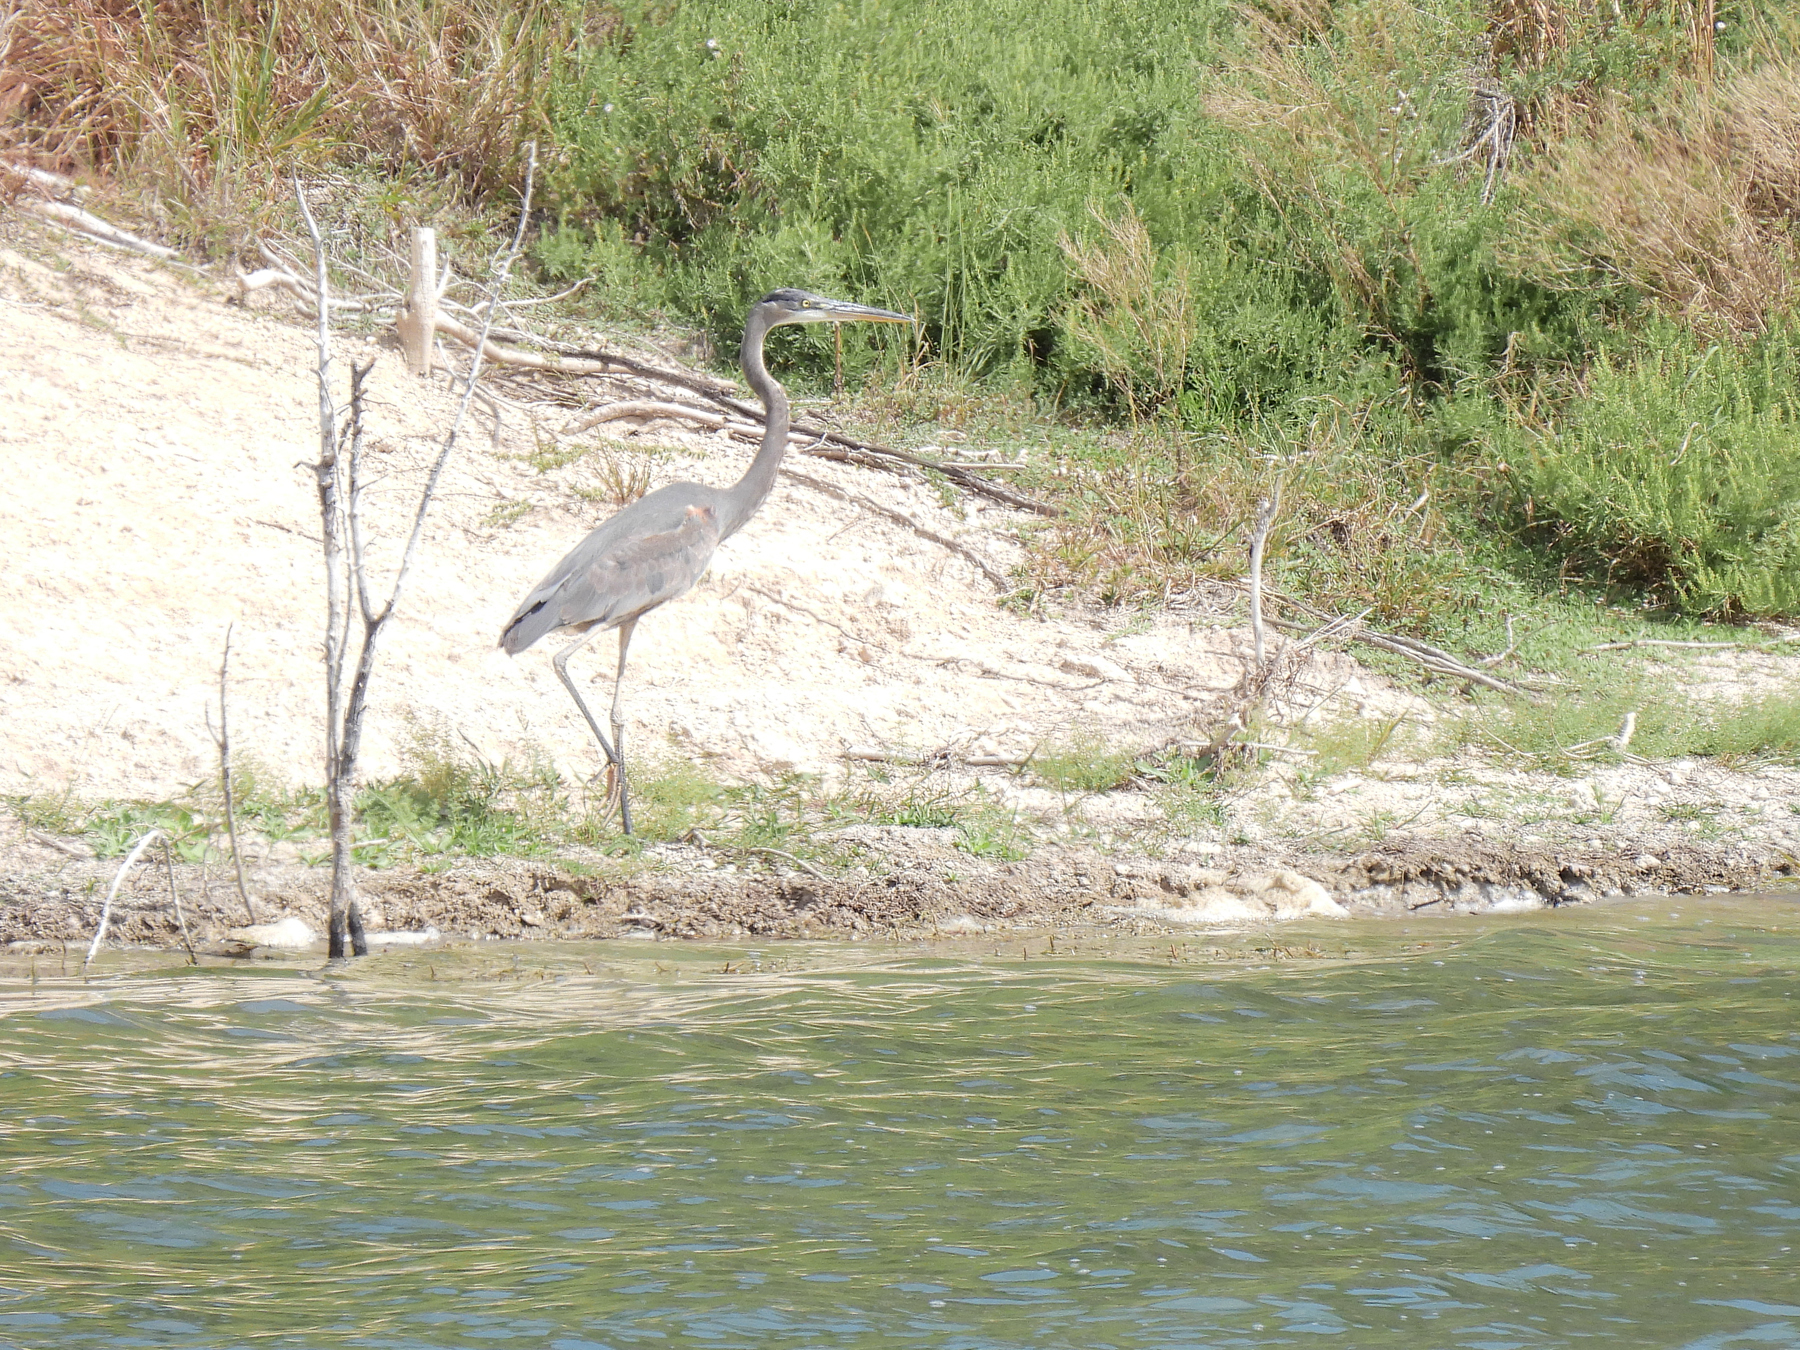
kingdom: Animalia
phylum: Chordata
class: Aves
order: Pelecaniformes
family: Ardeidae
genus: Ardea
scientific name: Ardea herodias
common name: Great blue heron
